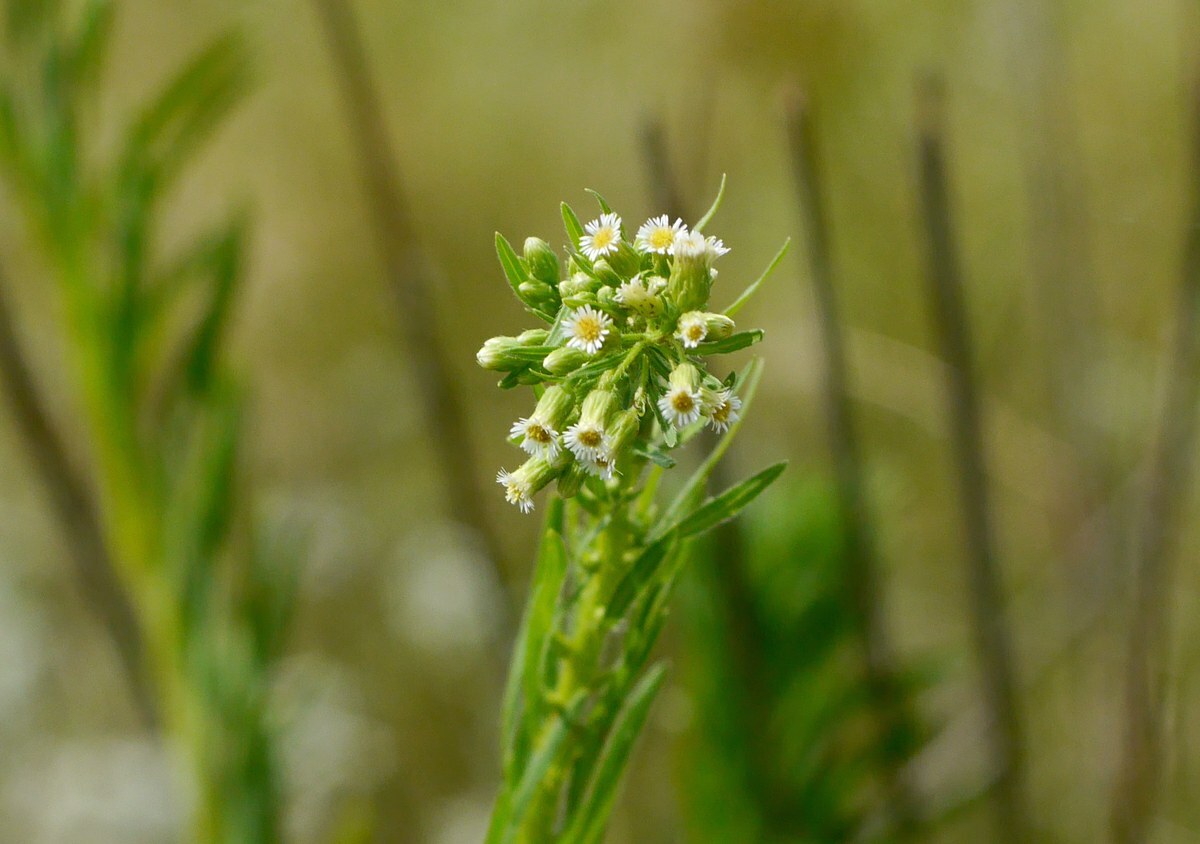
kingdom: Plantae
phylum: Tracheophyta
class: Magnoliopsida
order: Asterales
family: Asteraceae
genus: Erigeron
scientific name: Erigeron canadensis
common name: Canadian fleabane
